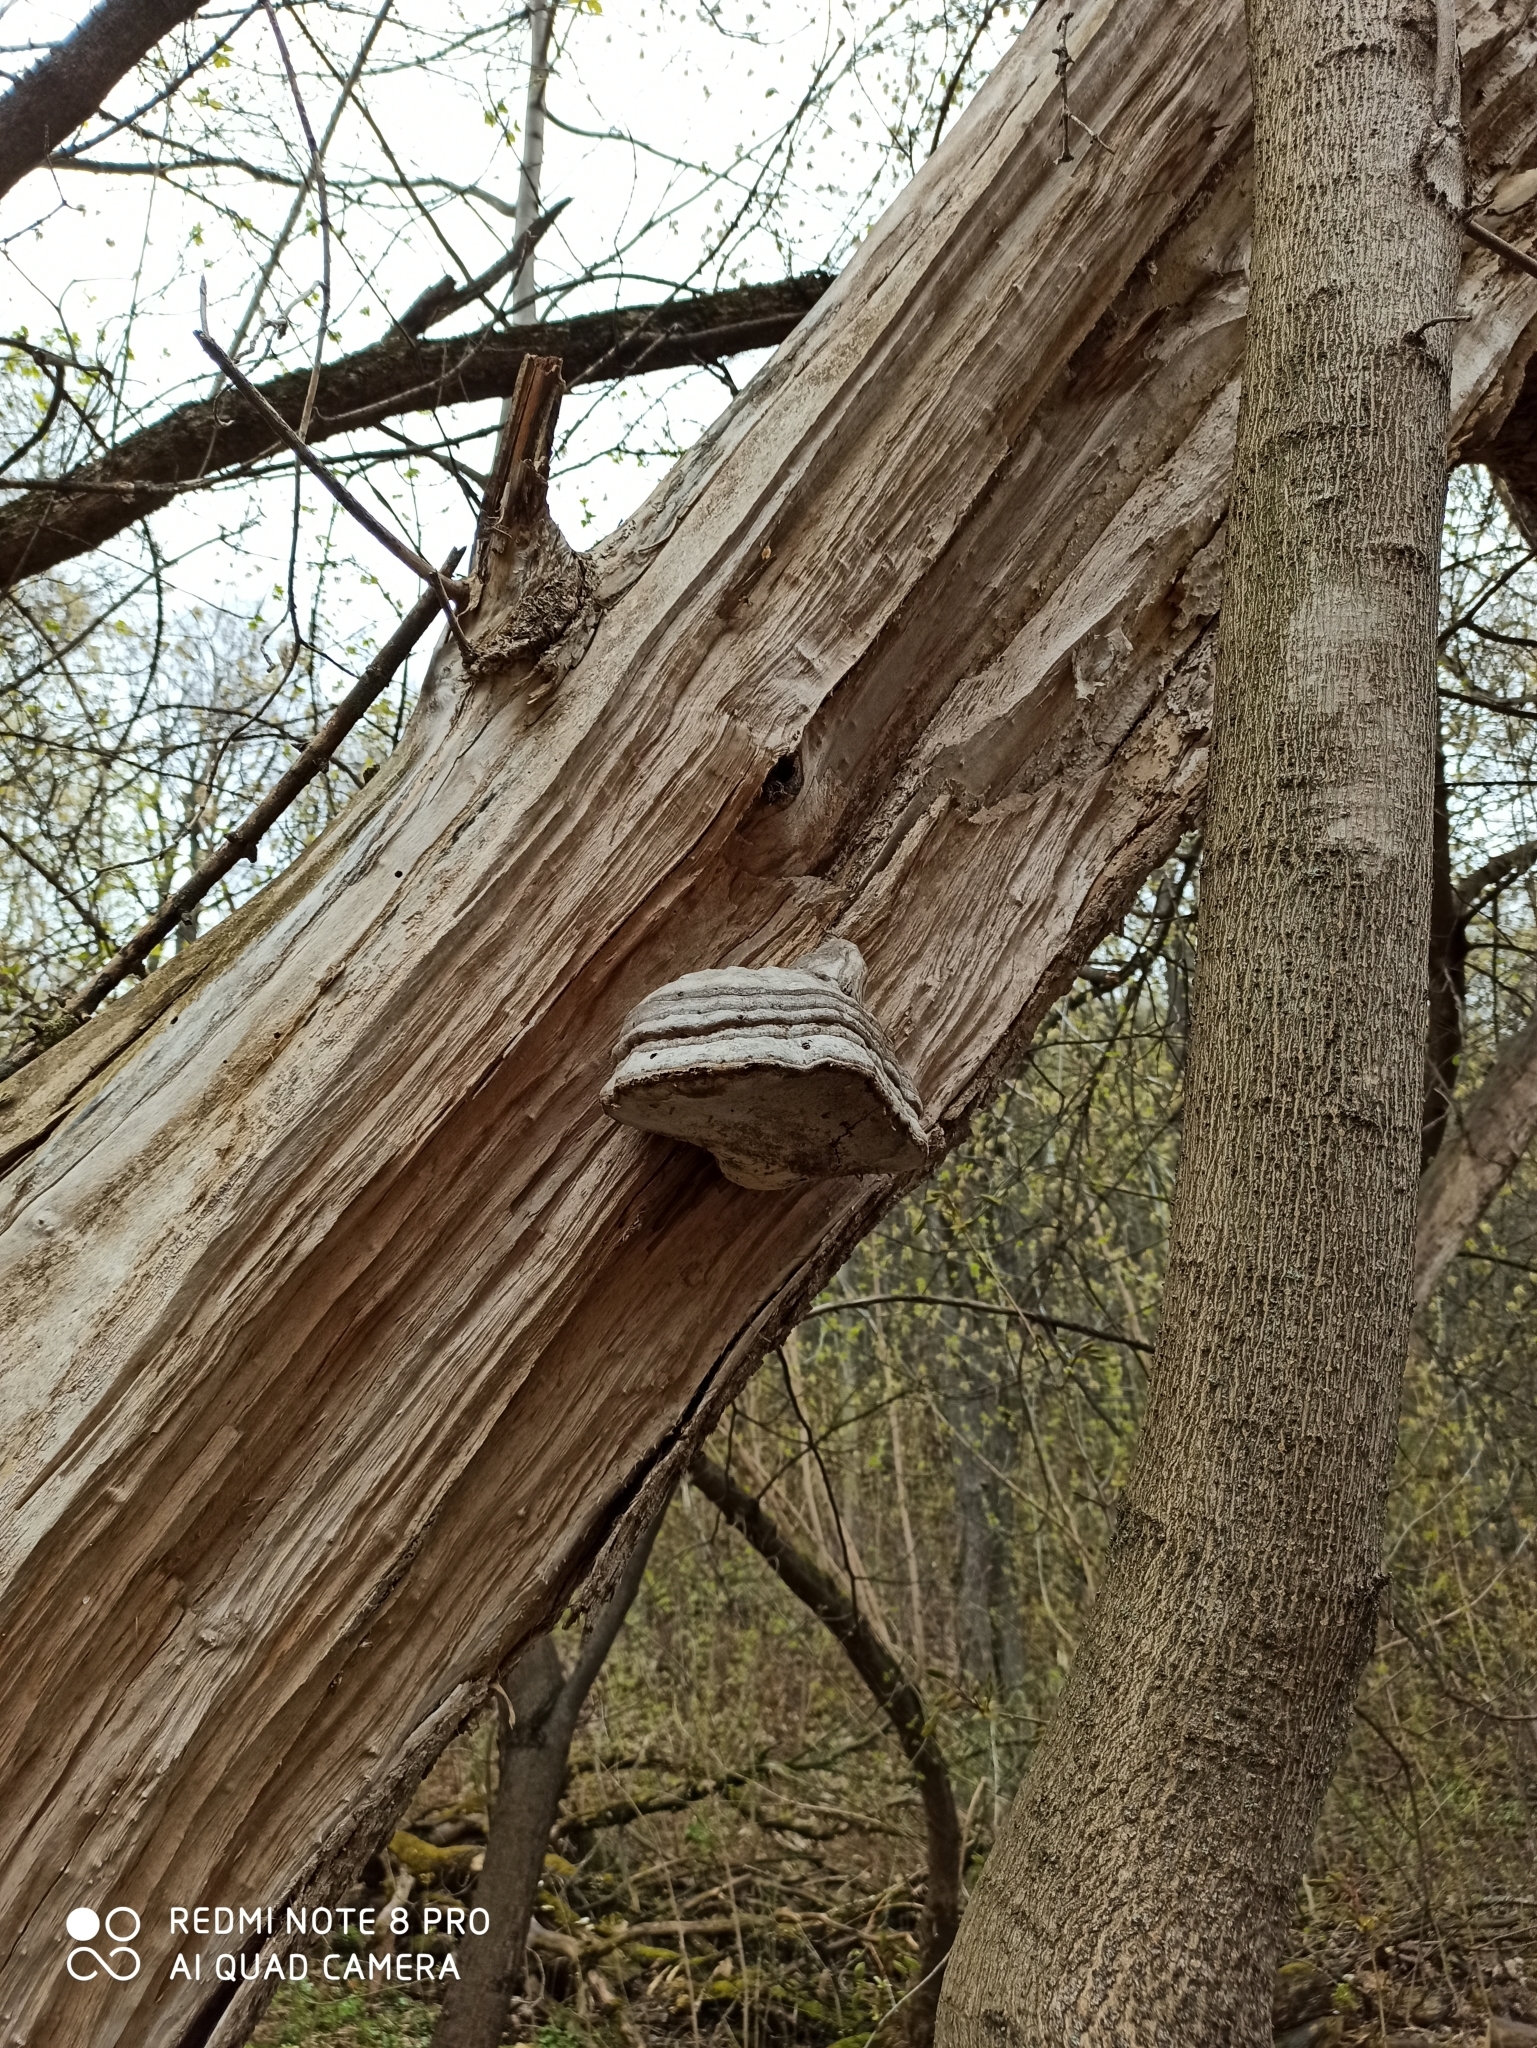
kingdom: Fungi
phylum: Basidiomycota
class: Agaricomycetes
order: Polyporales
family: Polyporaceae
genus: Fomes
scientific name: Fomes fomentarius
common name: Hoof fungus
